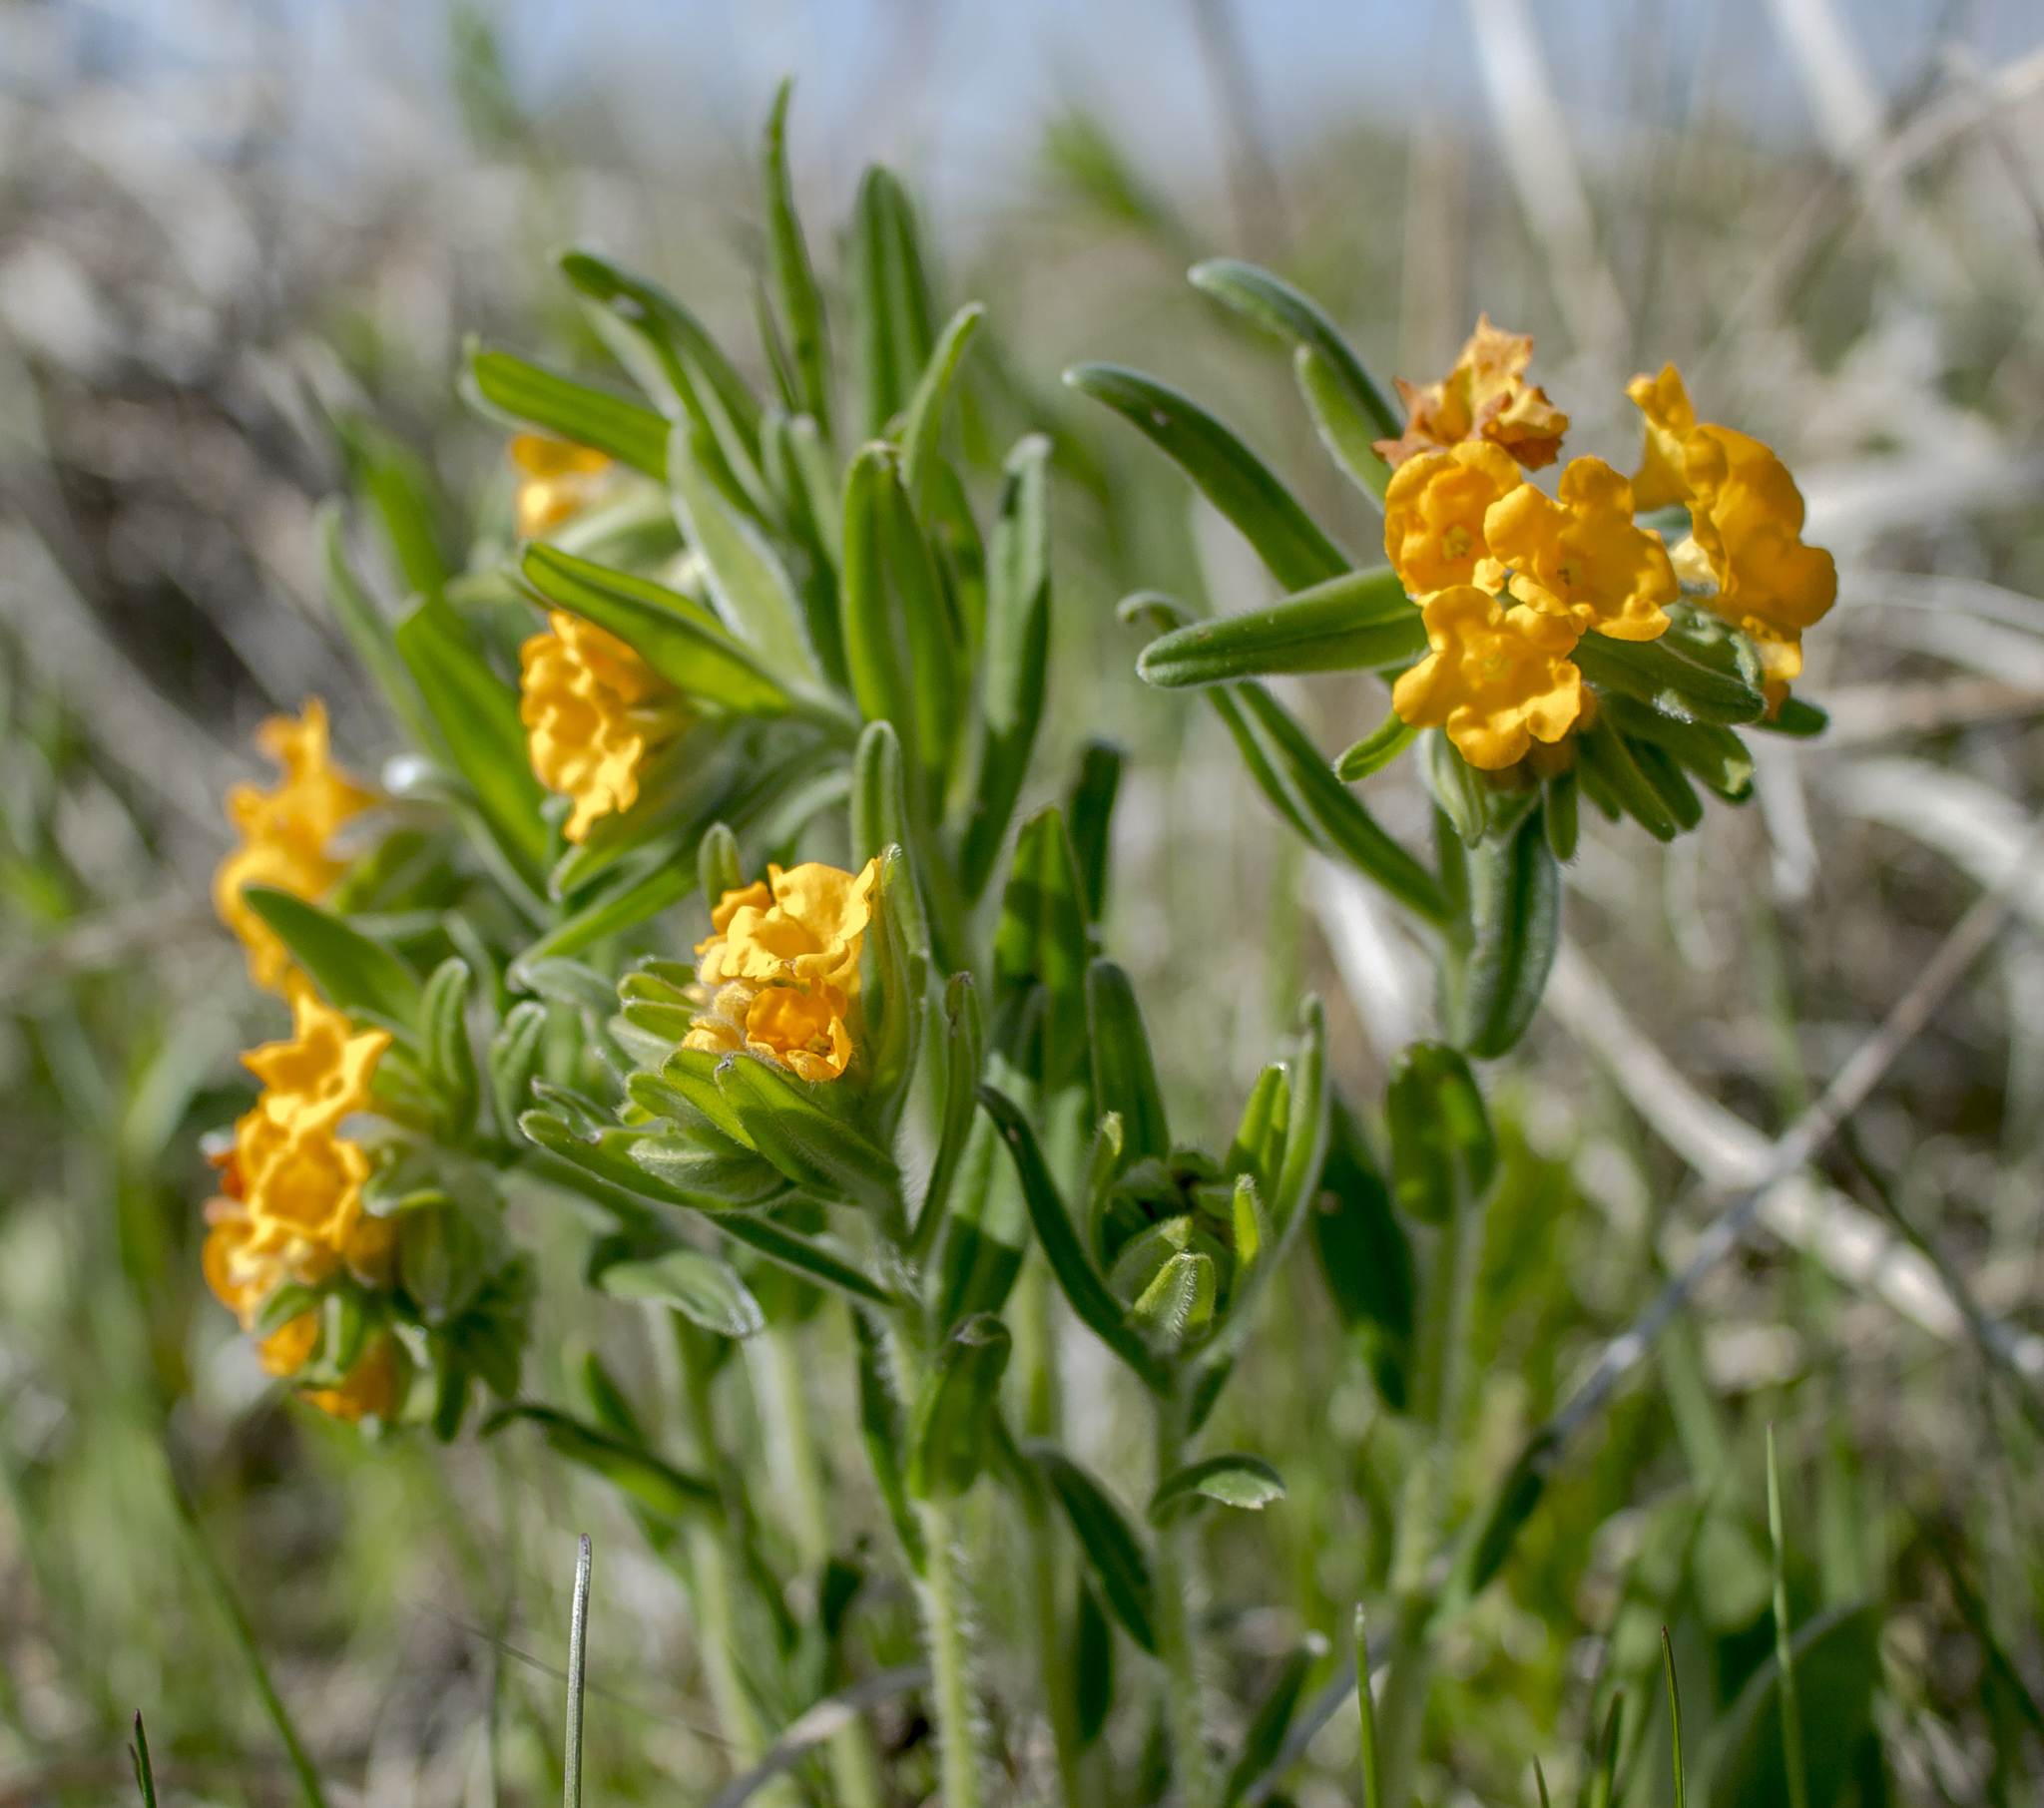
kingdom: Plantae
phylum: Tracheophyta
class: Magnoliopsida
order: Boraginales
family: Boraginaceae
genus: Lithospermum
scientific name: Lithospermum canescens
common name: Hoary puccoon
